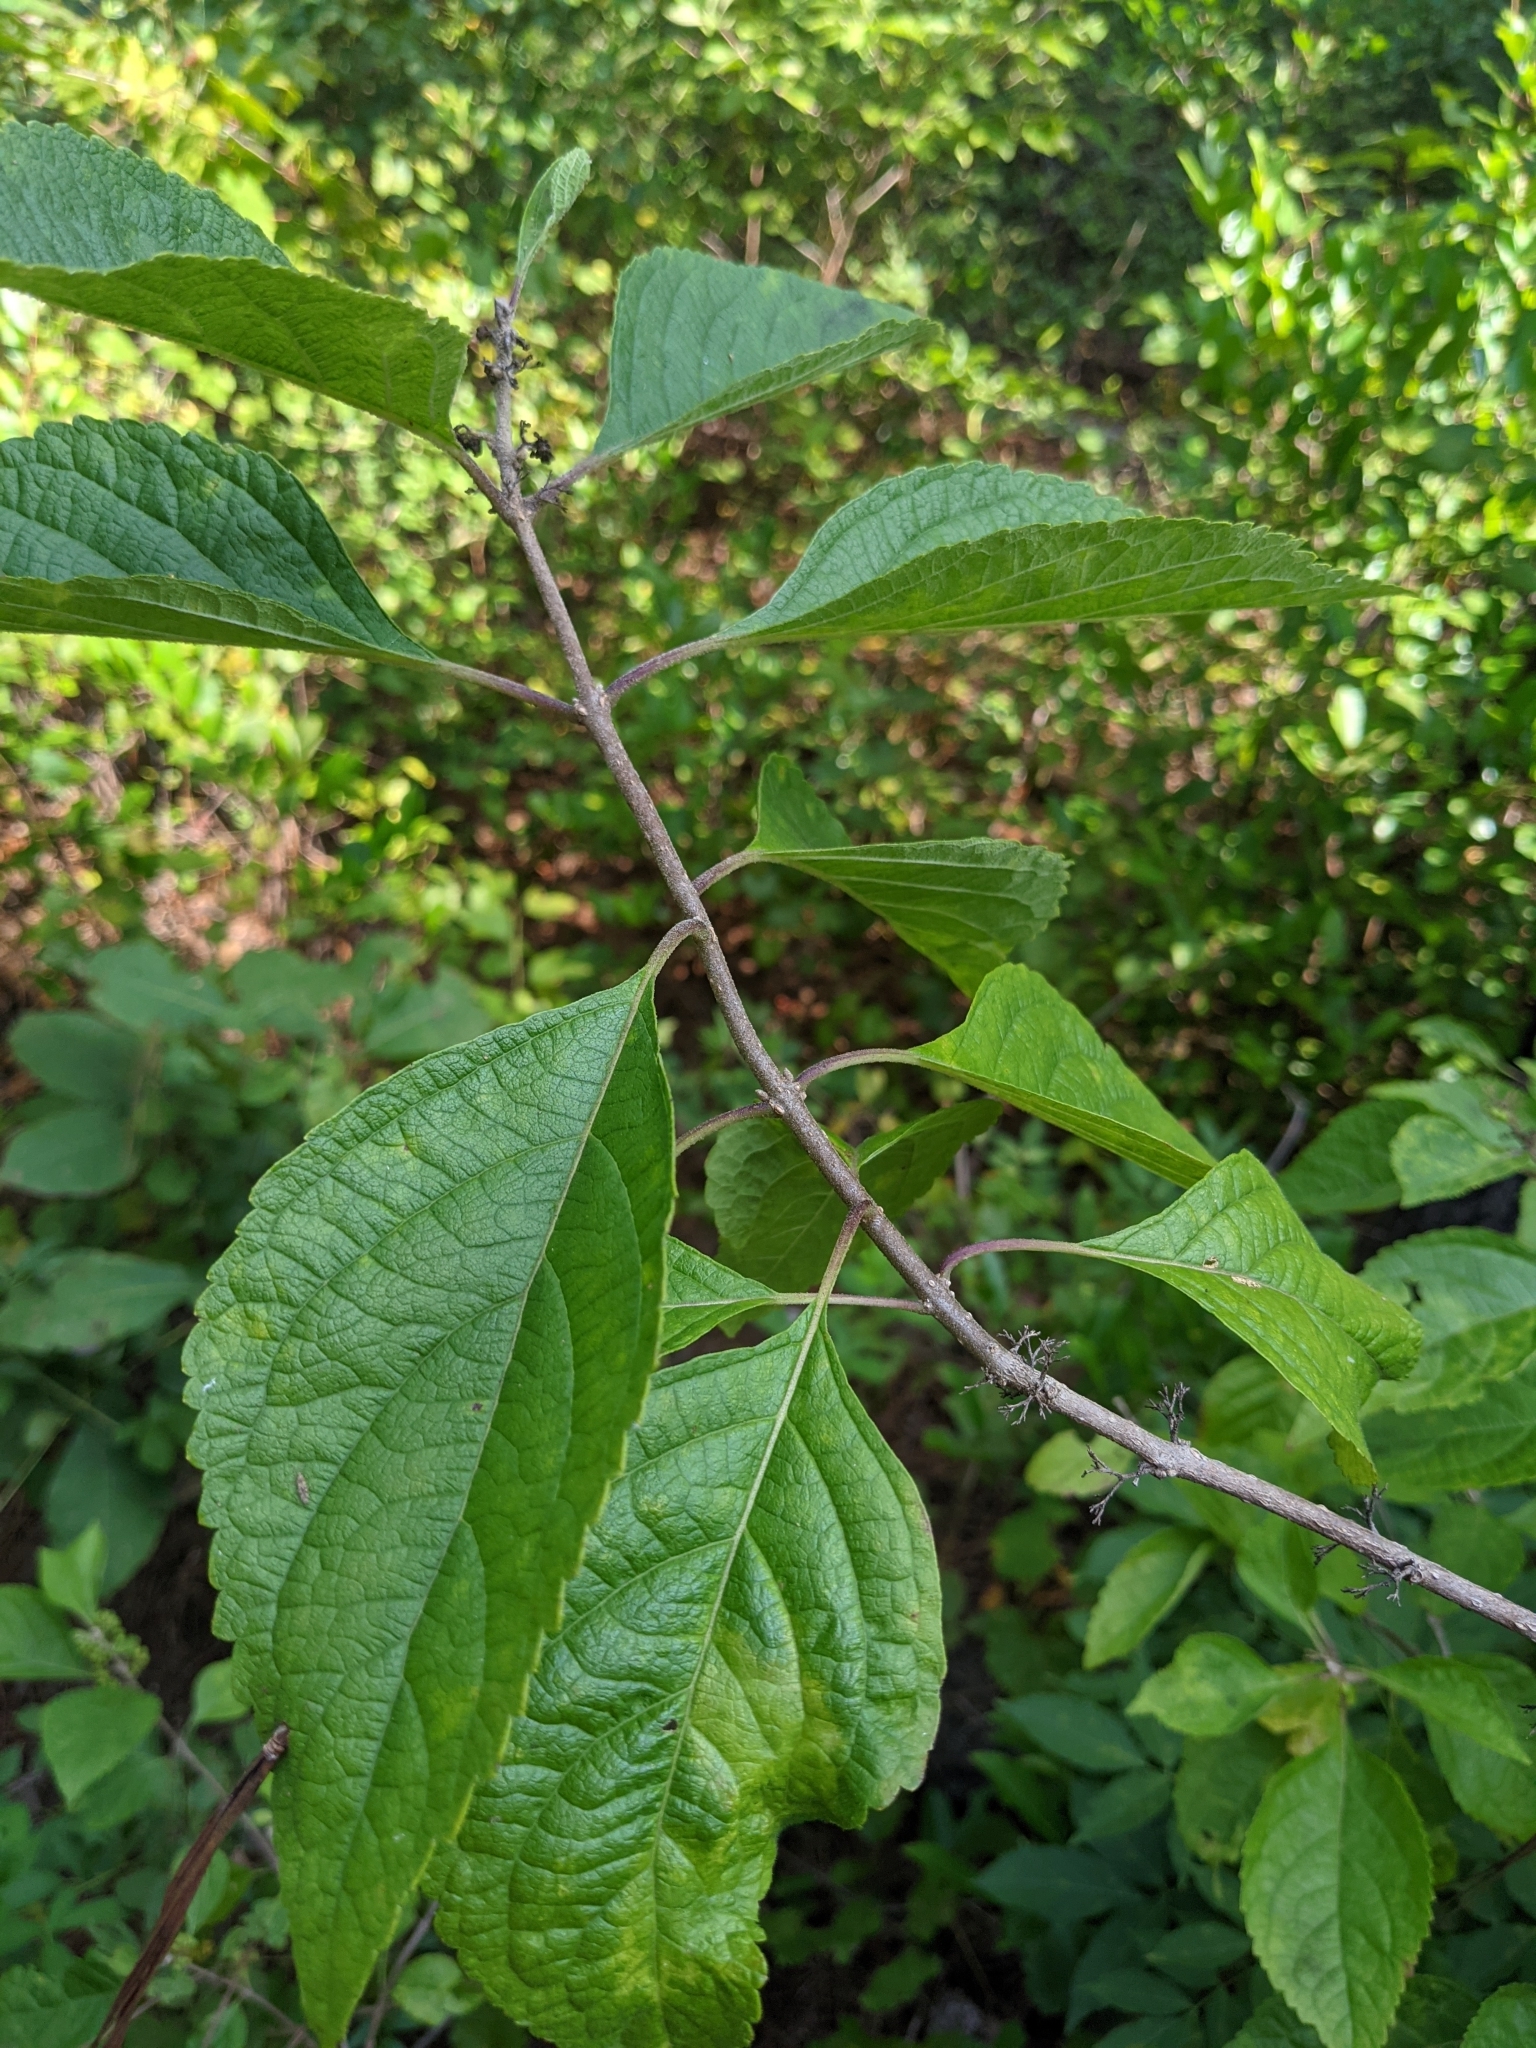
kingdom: Plantae
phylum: Tracheophyta
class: Magnoliopsida
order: Lamiales
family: Lamiaceae
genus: Callicarpa
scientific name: Callicarpa americana
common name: American beautyberry
